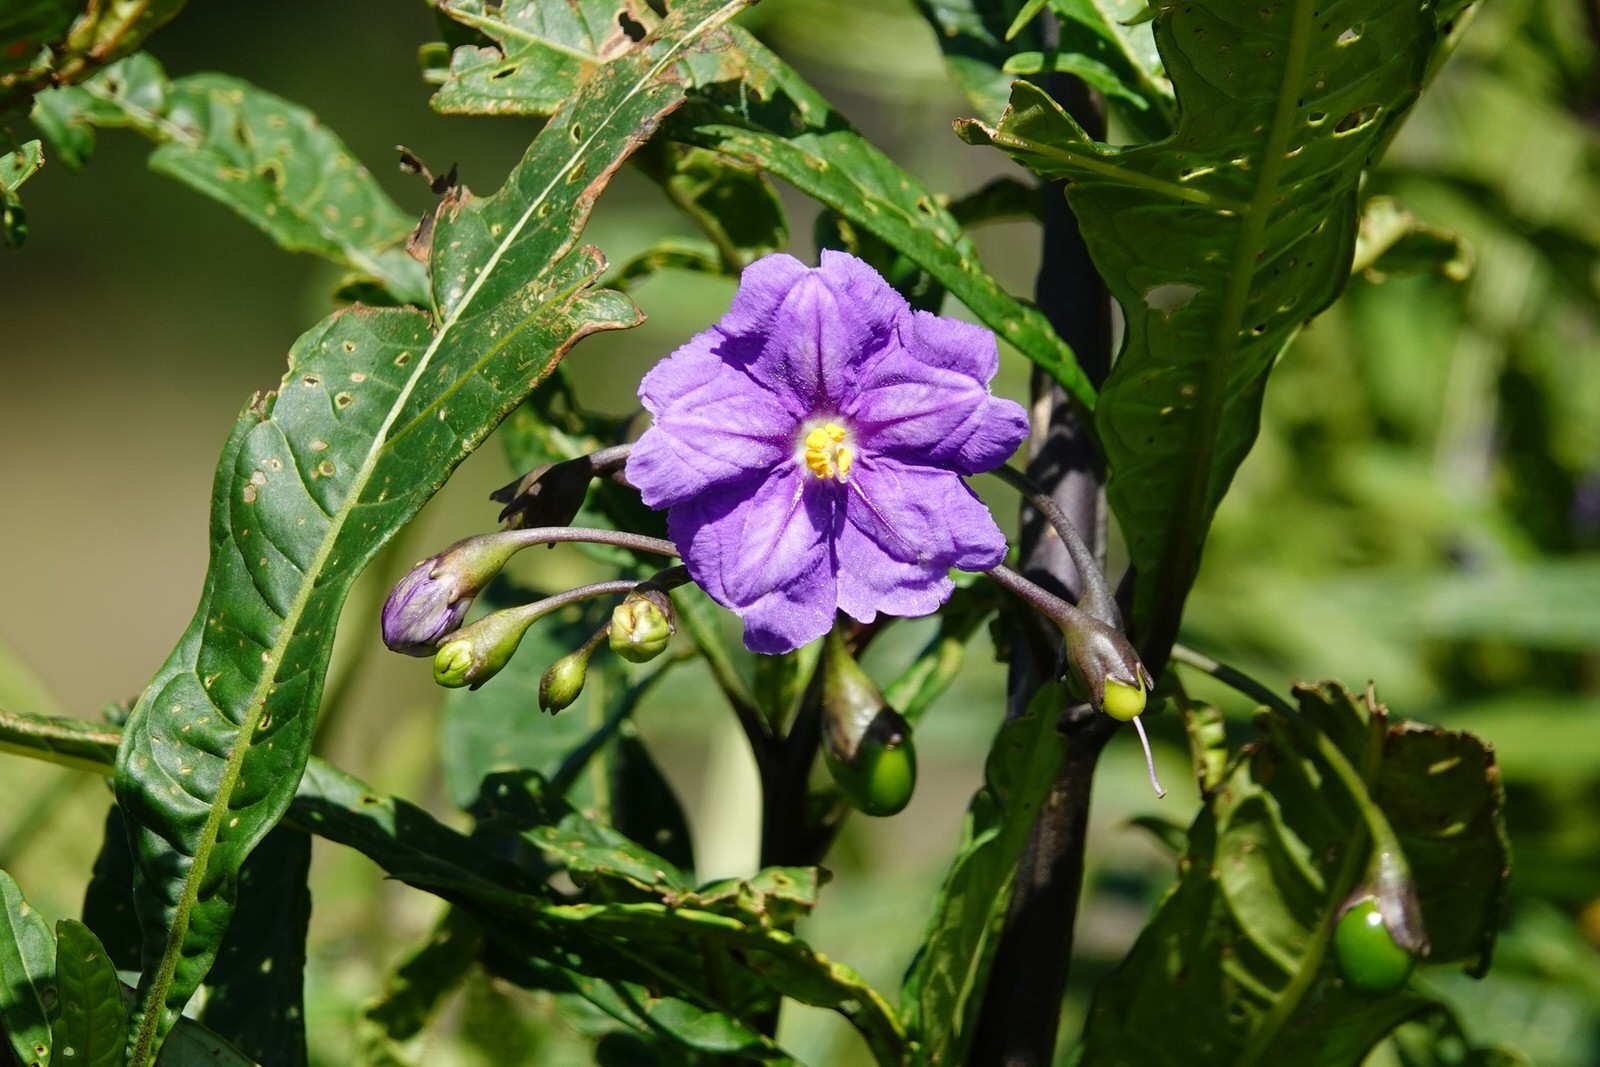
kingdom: Animalia
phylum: Arthropoda
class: Insecta
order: Coleoptera
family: Chrysomelidae
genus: Psylliodes
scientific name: Psylliodes brettinghami
